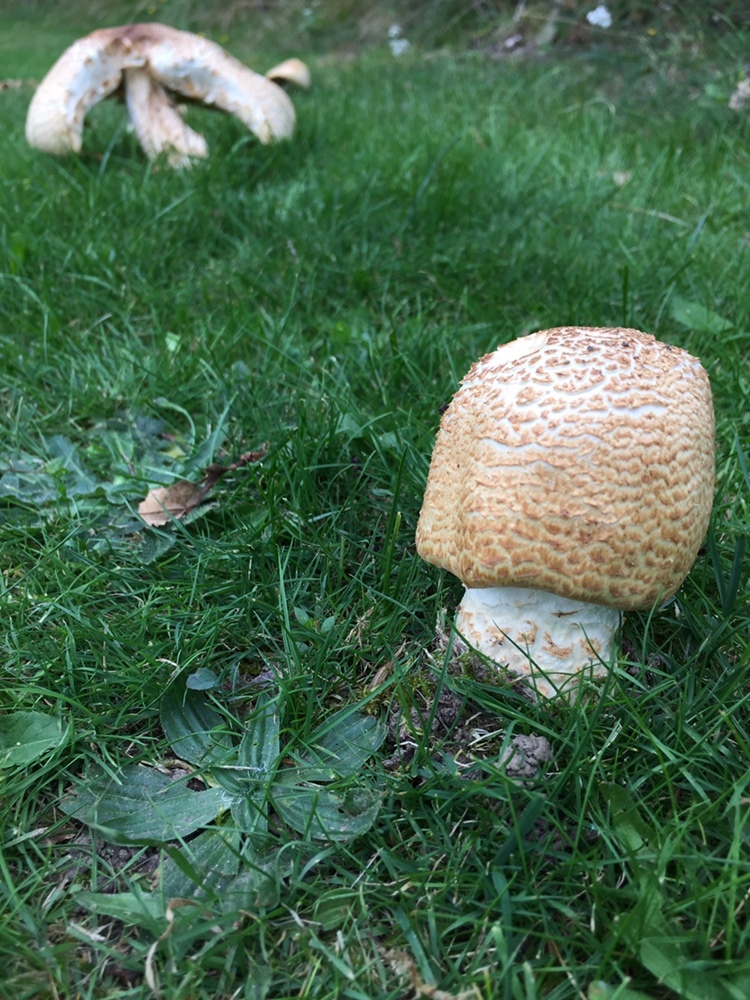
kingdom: Fungi
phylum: Basidiomycota
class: Agaricomycetes
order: Agaricales
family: Agaricaceae
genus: Agaricus
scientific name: Agaricus augustus
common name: Prince
